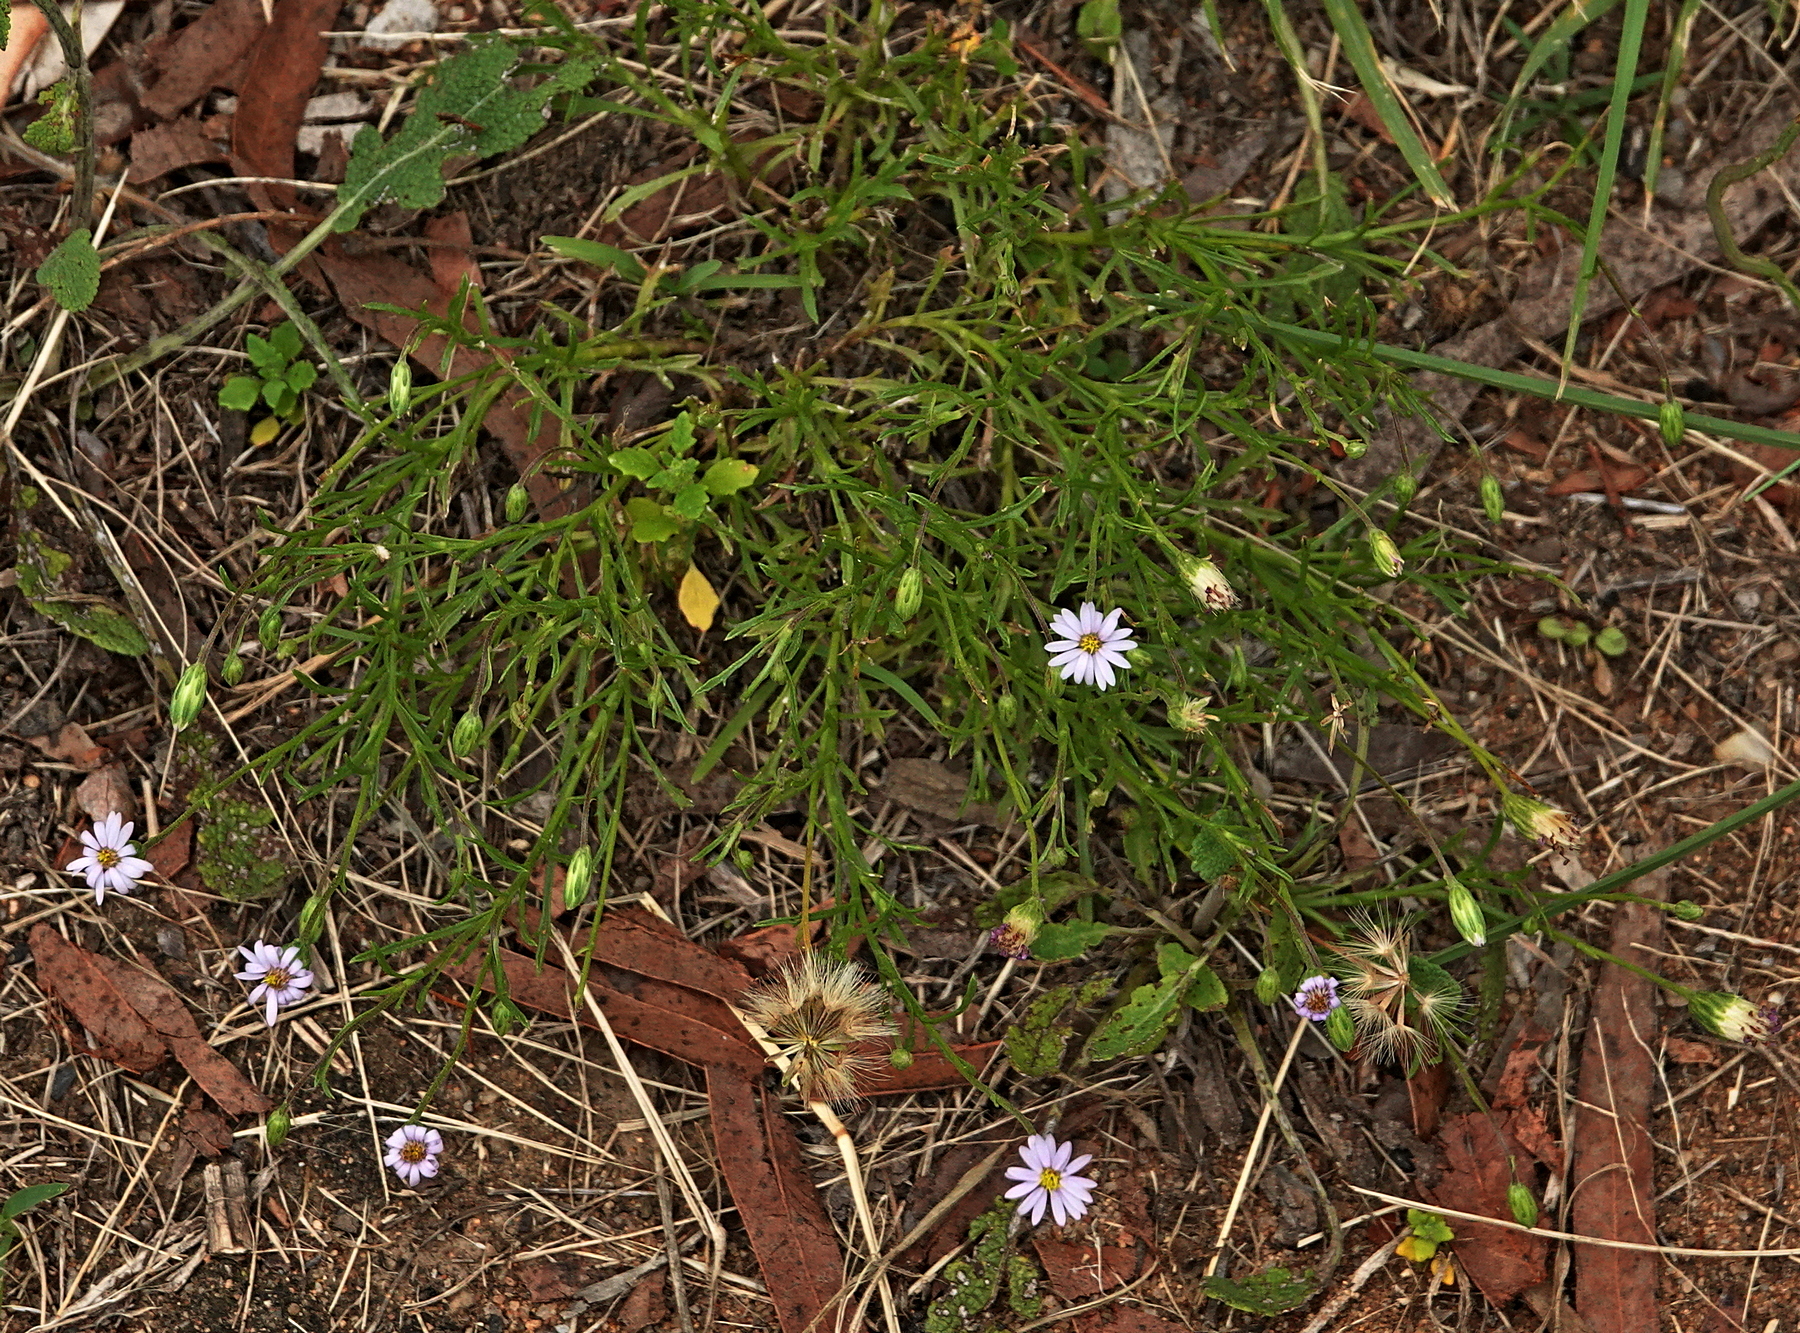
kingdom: Plantae
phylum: Tracheophyta
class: Magnoliopsida
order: Asterales
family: Asteraceae
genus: Vittadinia
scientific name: Vittadinia muelleri
